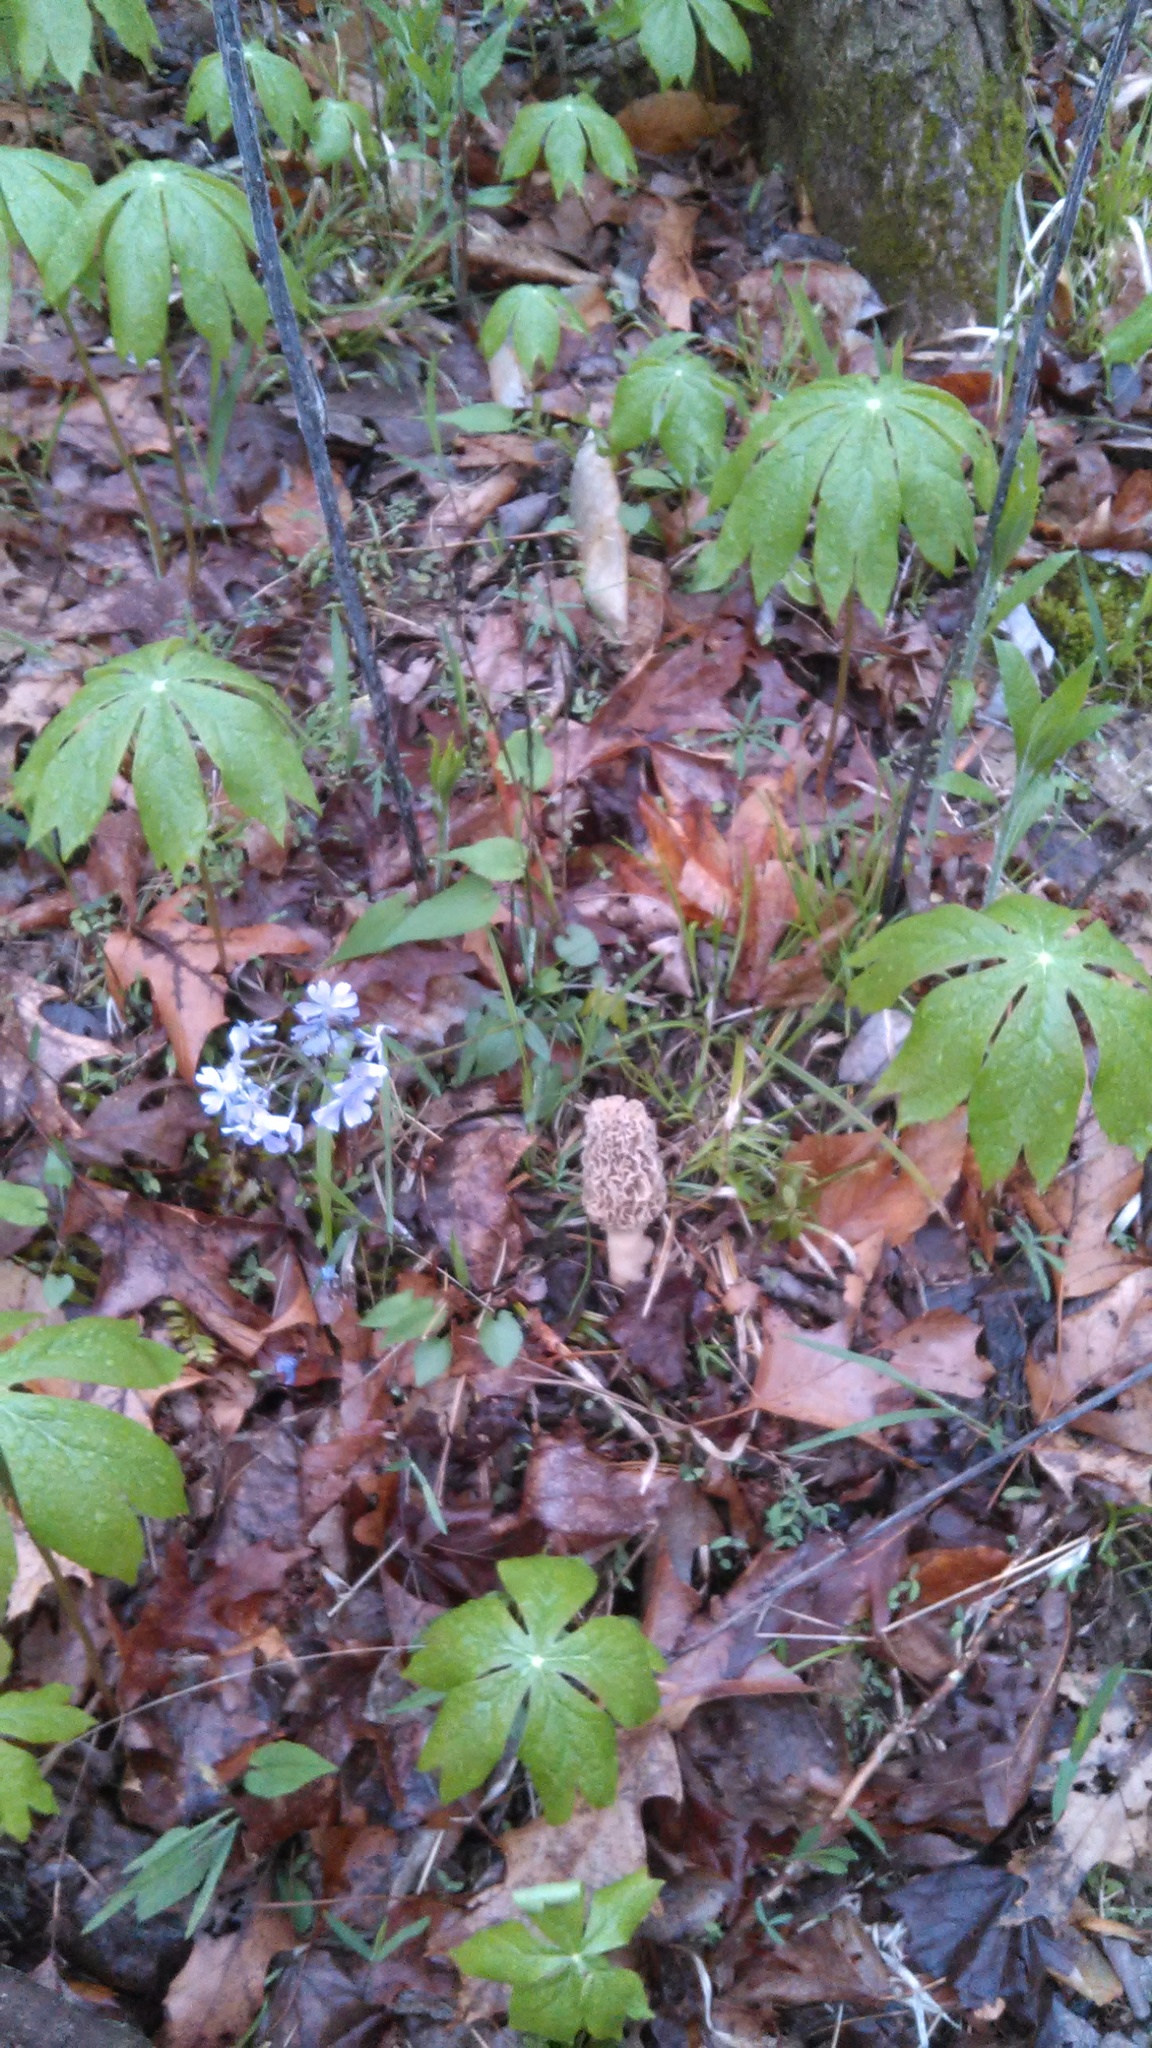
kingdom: Fungi
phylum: Ascomycota
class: Pezizomycetes
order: Pezizales
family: Morchellaceae
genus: Morchella
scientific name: Morchella americana
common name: White morel
